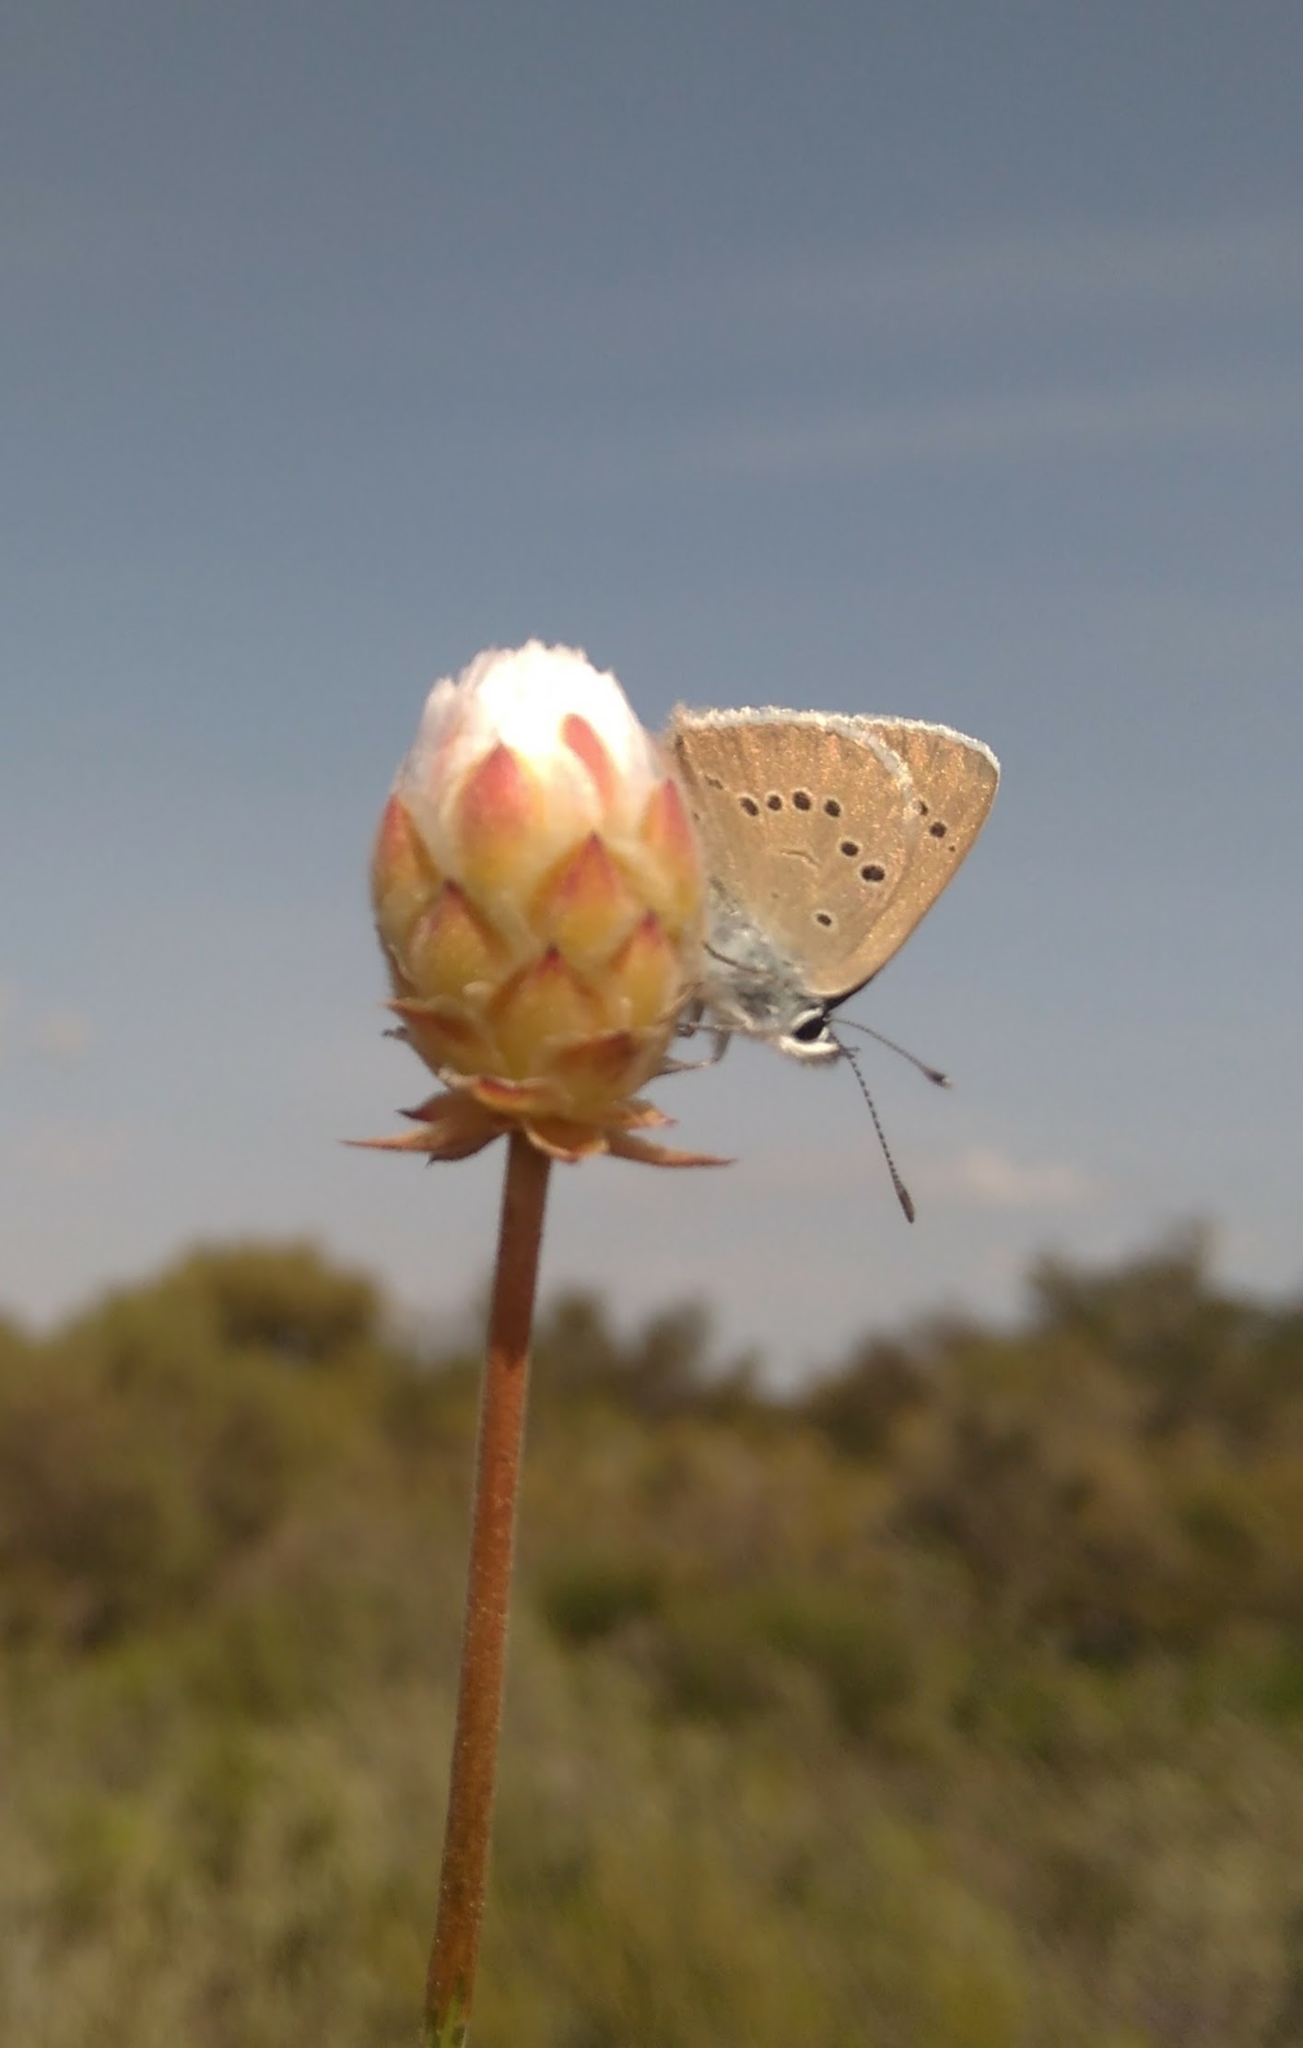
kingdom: Animalia
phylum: Arthropoda
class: Insecta
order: Lepidoptera
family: Lycaenidae
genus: Cyaniris
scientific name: Cyaniris semiargus
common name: Mazarine blue
